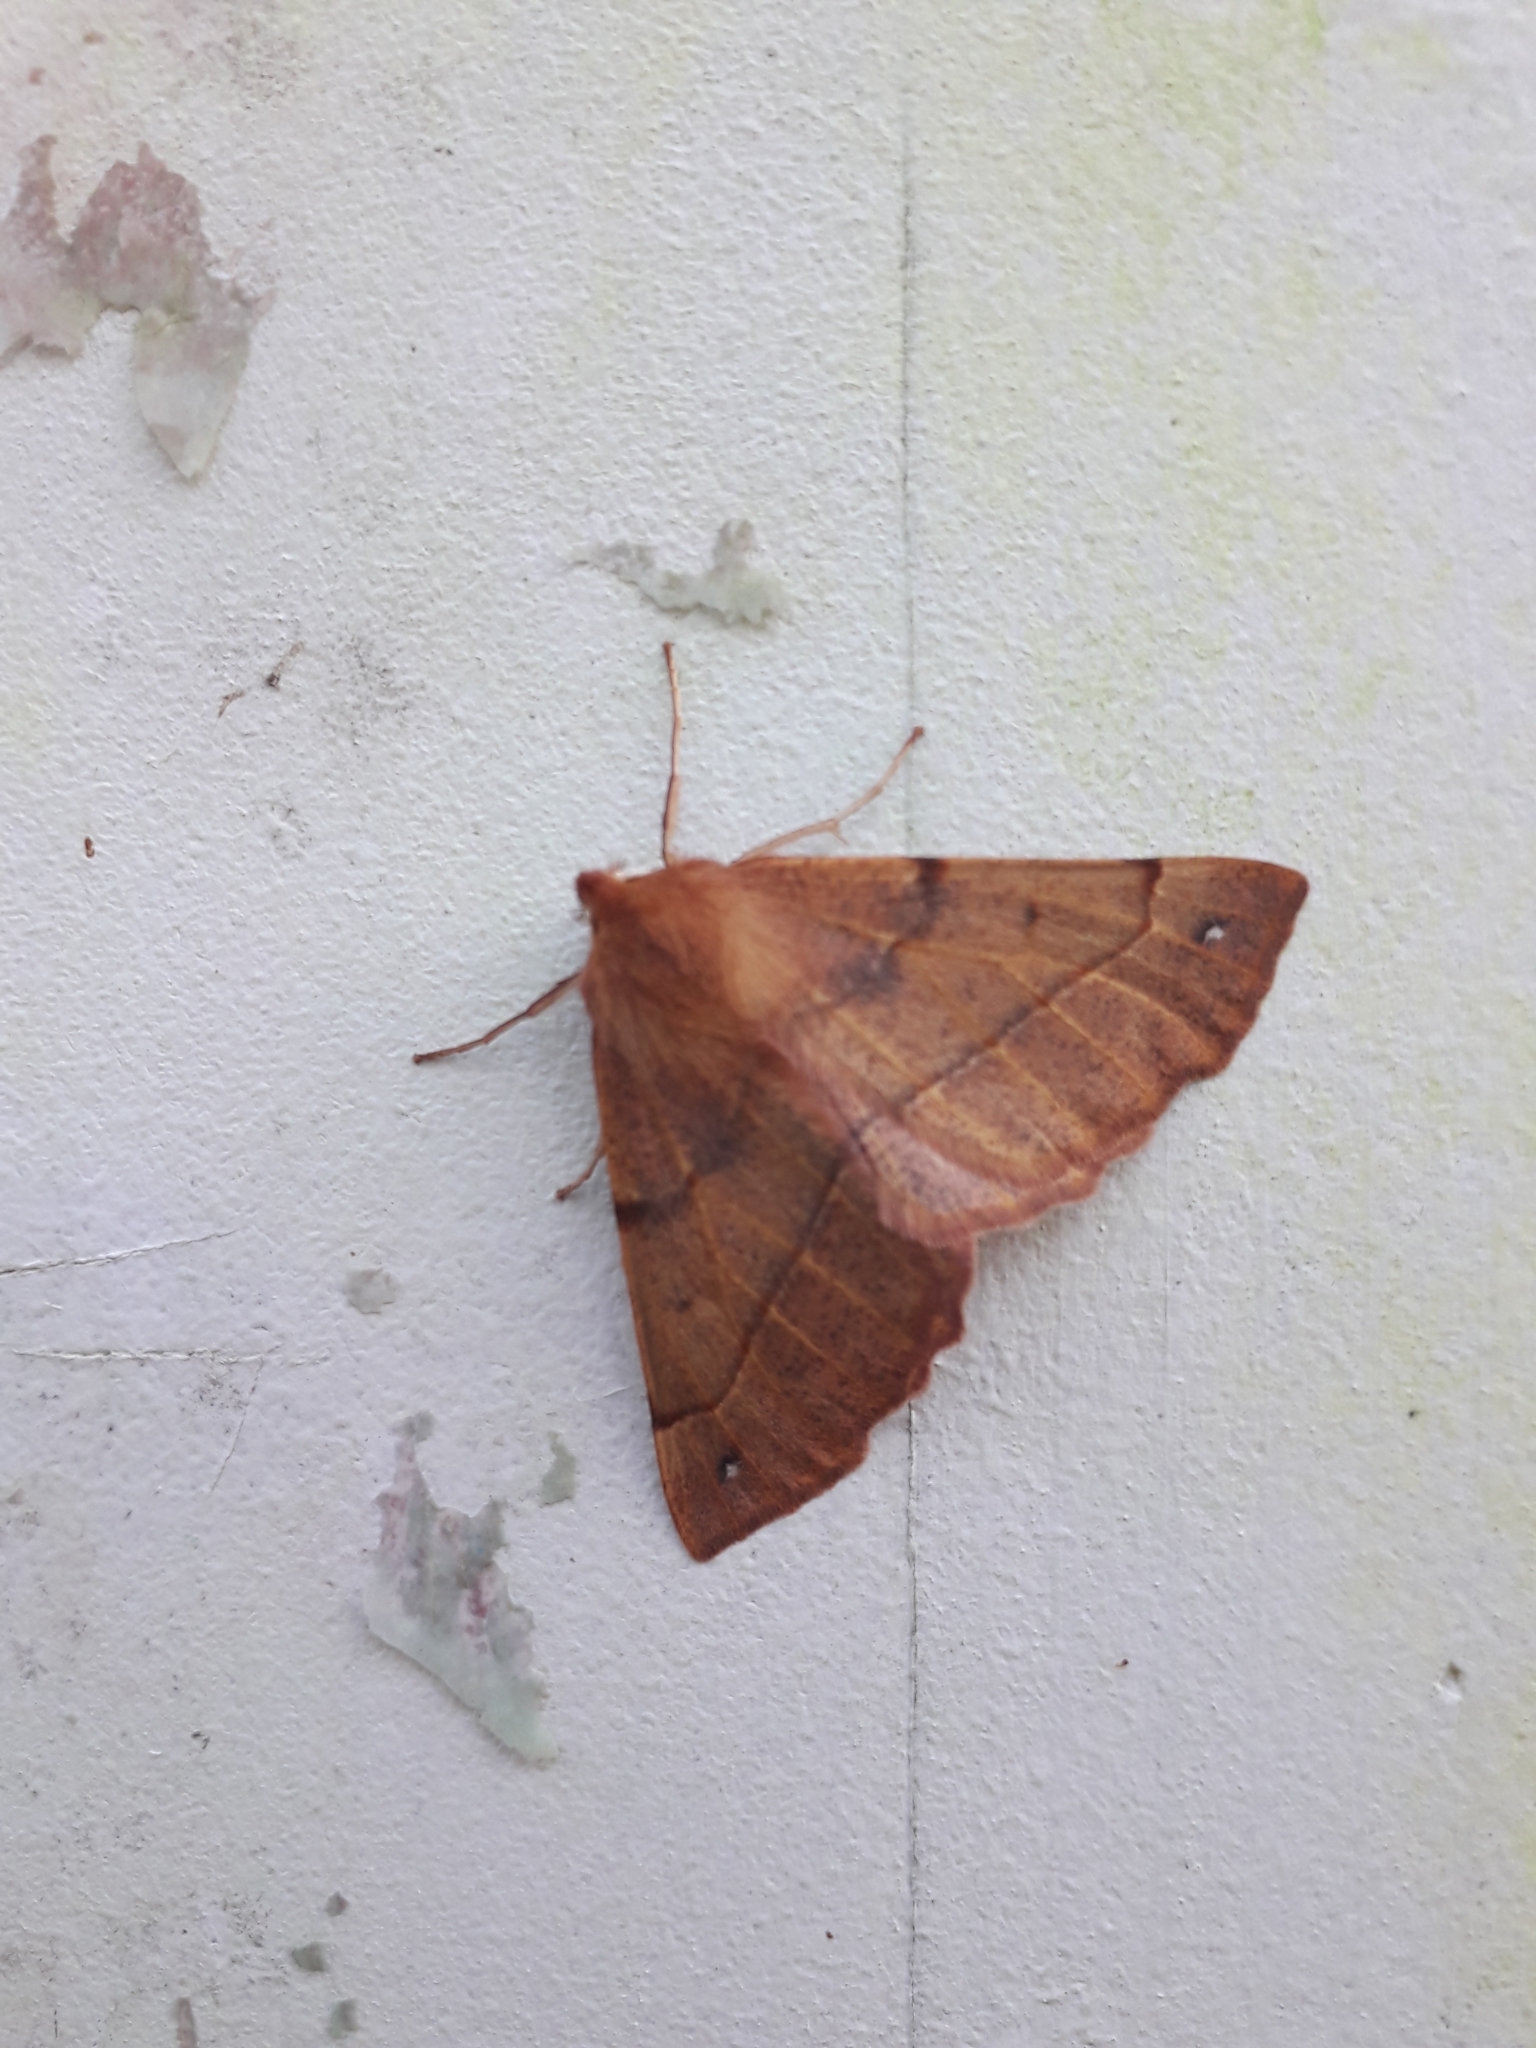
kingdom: Animalia
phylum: Arthropoda
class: Insecta
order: Lepidoptera
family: Geometridae
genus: Colotois
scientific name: Colotois pennaria
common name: Feathered thorn
